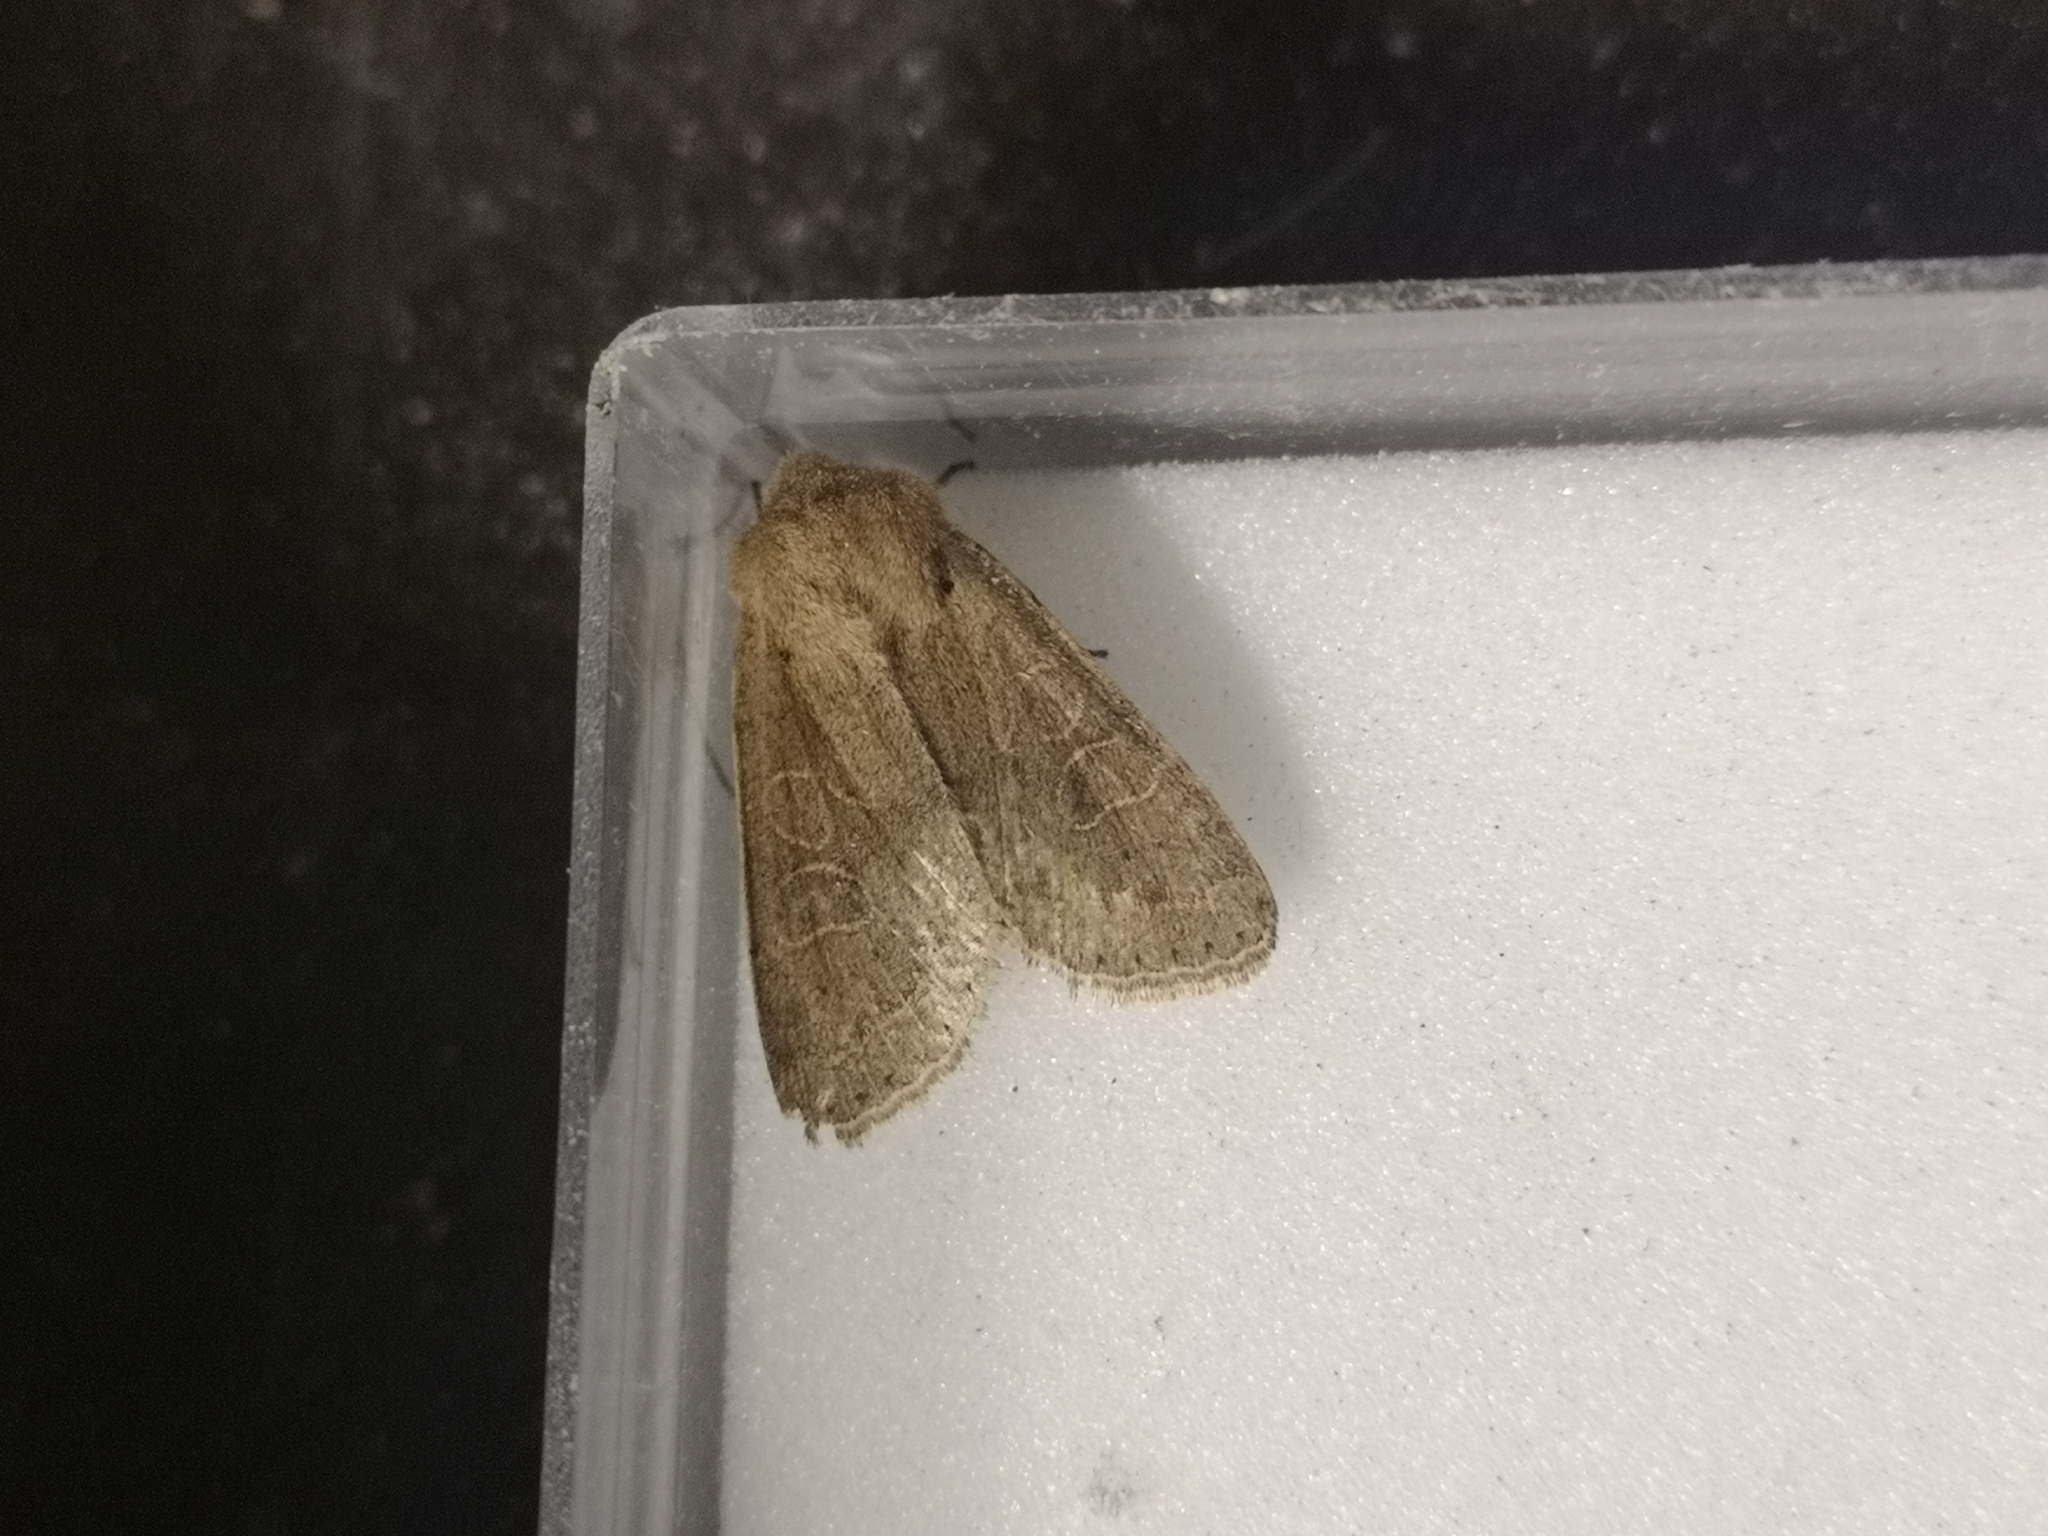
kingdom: Animalia
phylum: Arthropoda
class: Insecta
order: Lepidoptera
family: Noctuidae
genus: Orthosia
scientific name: Orthosia cerasi
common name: Common quaker
